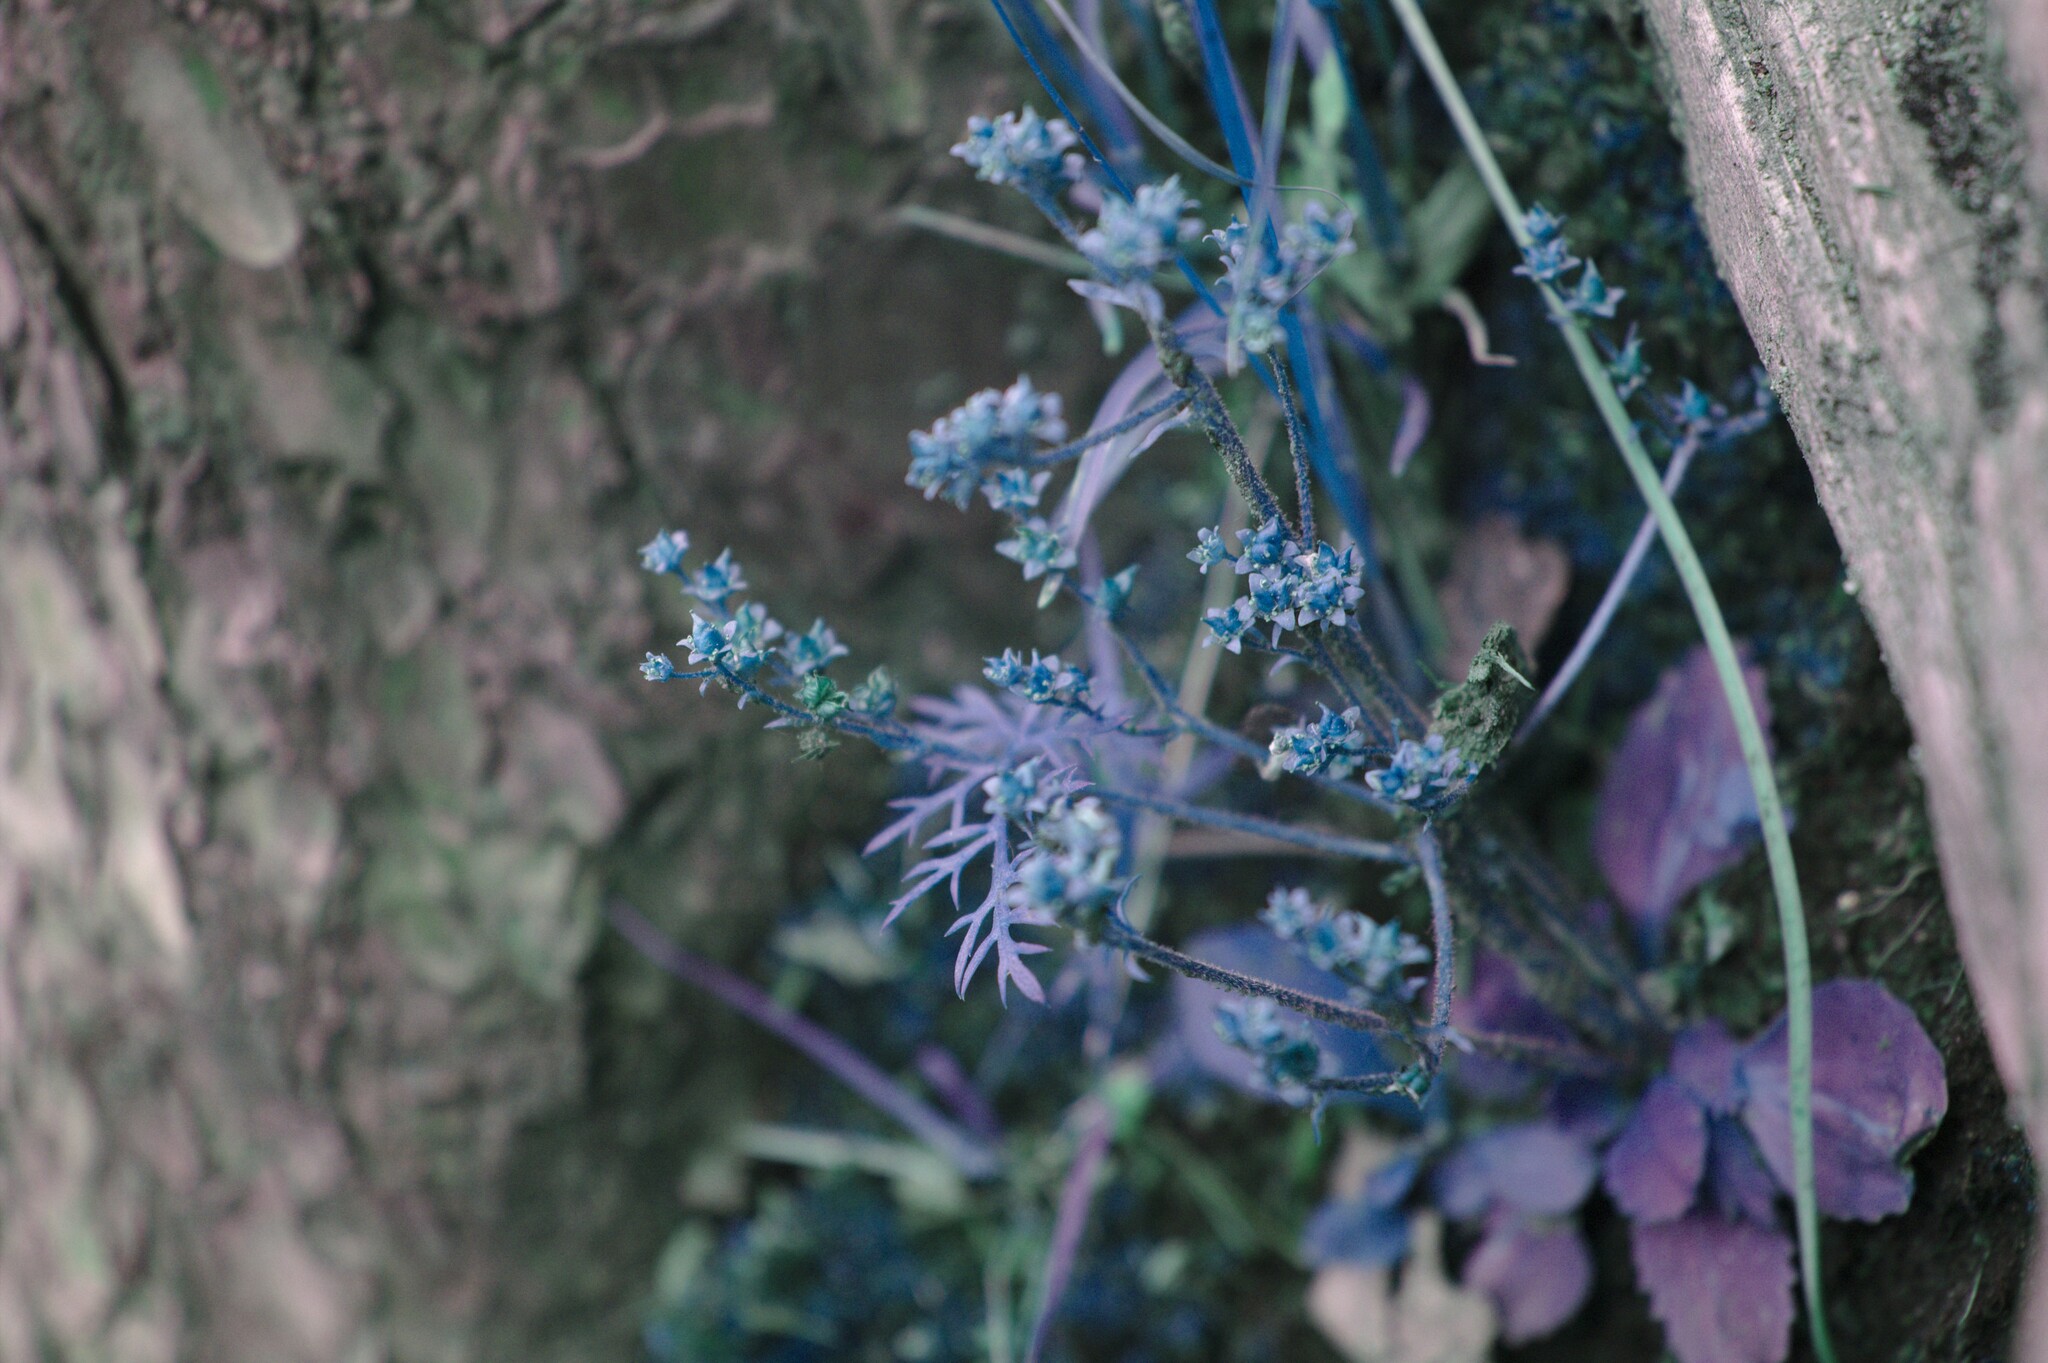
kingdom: Plantae
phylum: Tracheophyta
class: Magnoliopsida
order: Saxifragales
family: Saxifragaceae
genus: Micranthes
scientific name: Micranthes virginiensis
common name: Early saxifrage
